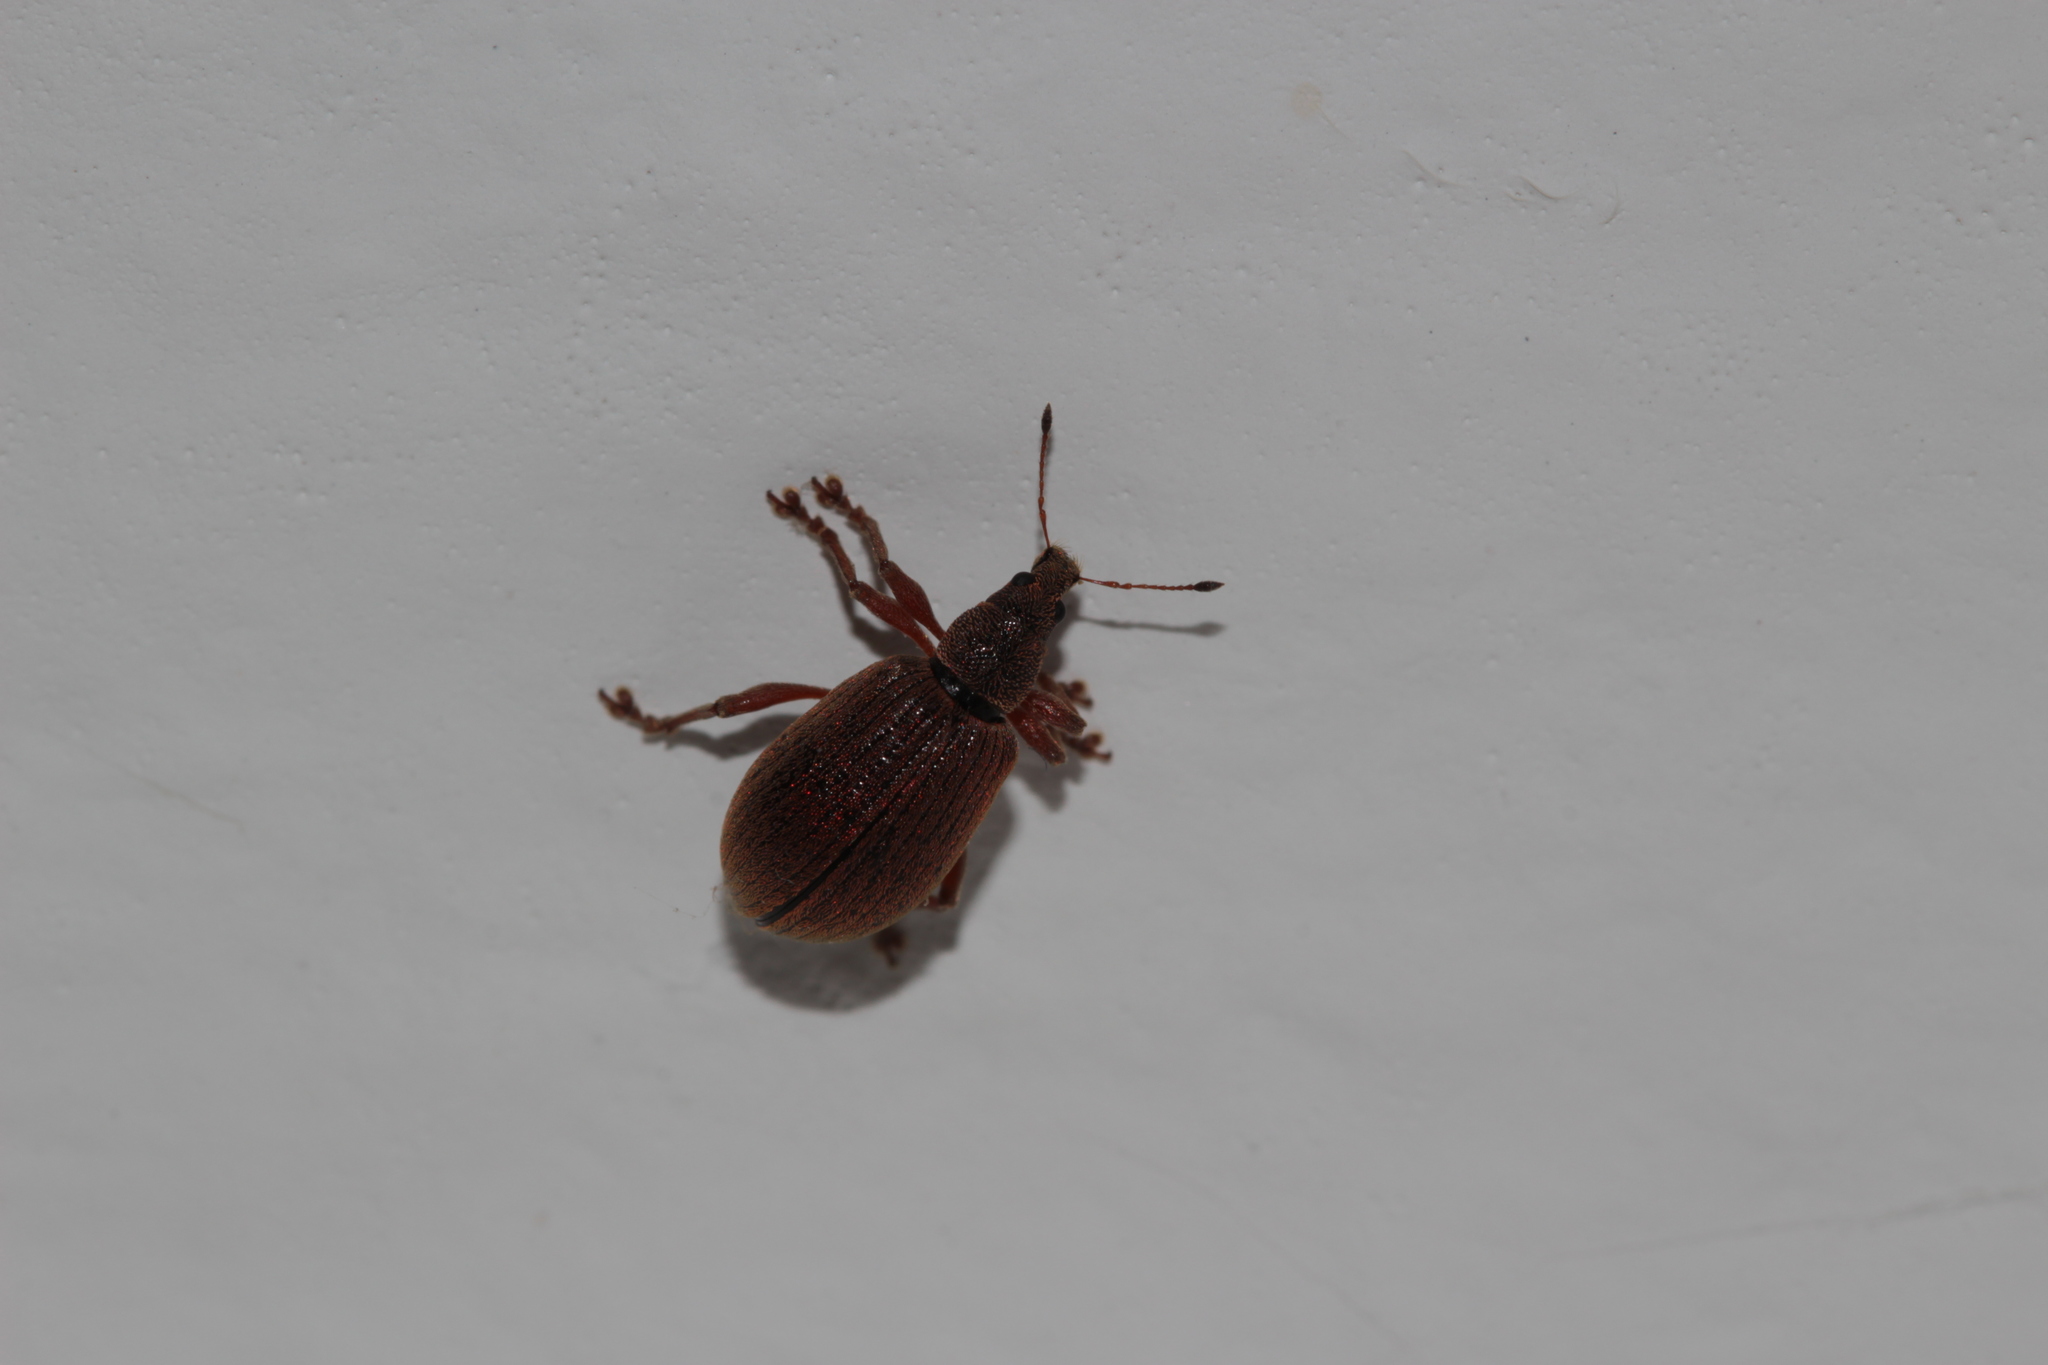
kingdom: Animalia
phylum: Arthropoda
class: Insecta
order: Coleoptera
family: Curculionidae
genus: Polydrusus
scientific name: Polydrusus mollis
